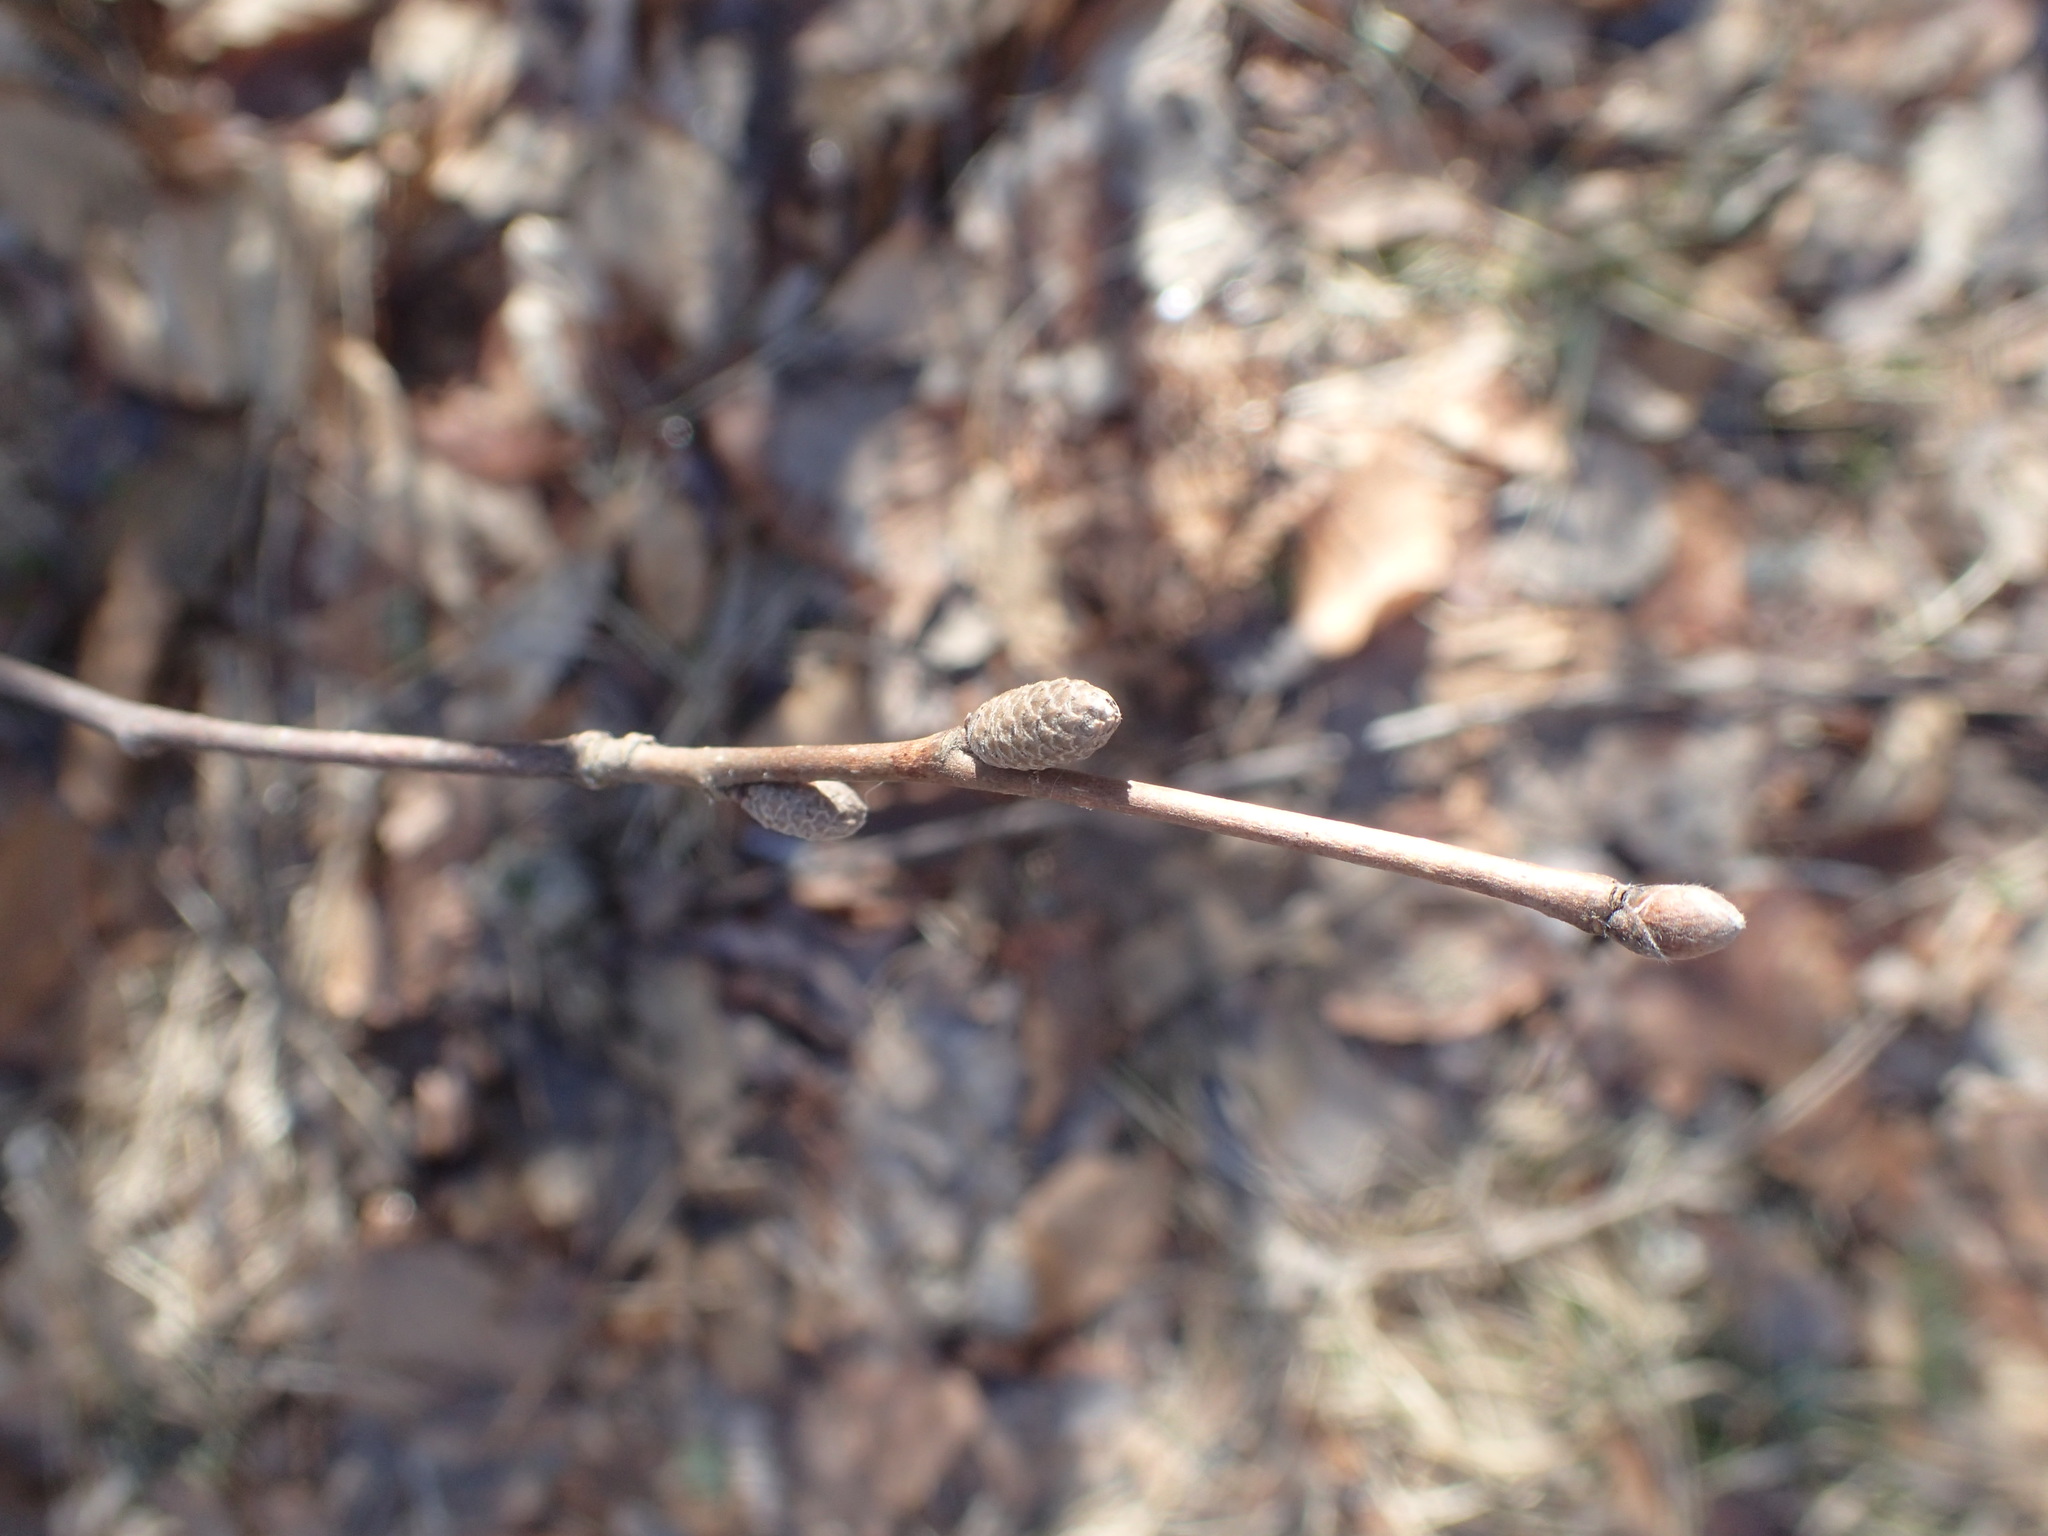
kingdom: Plantae
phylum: Tracheophyta
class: Magnoliopsida
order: Fagales
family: Betulaceae
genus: Corylus
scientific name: Corylus cornuta
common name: Beaked hazel
